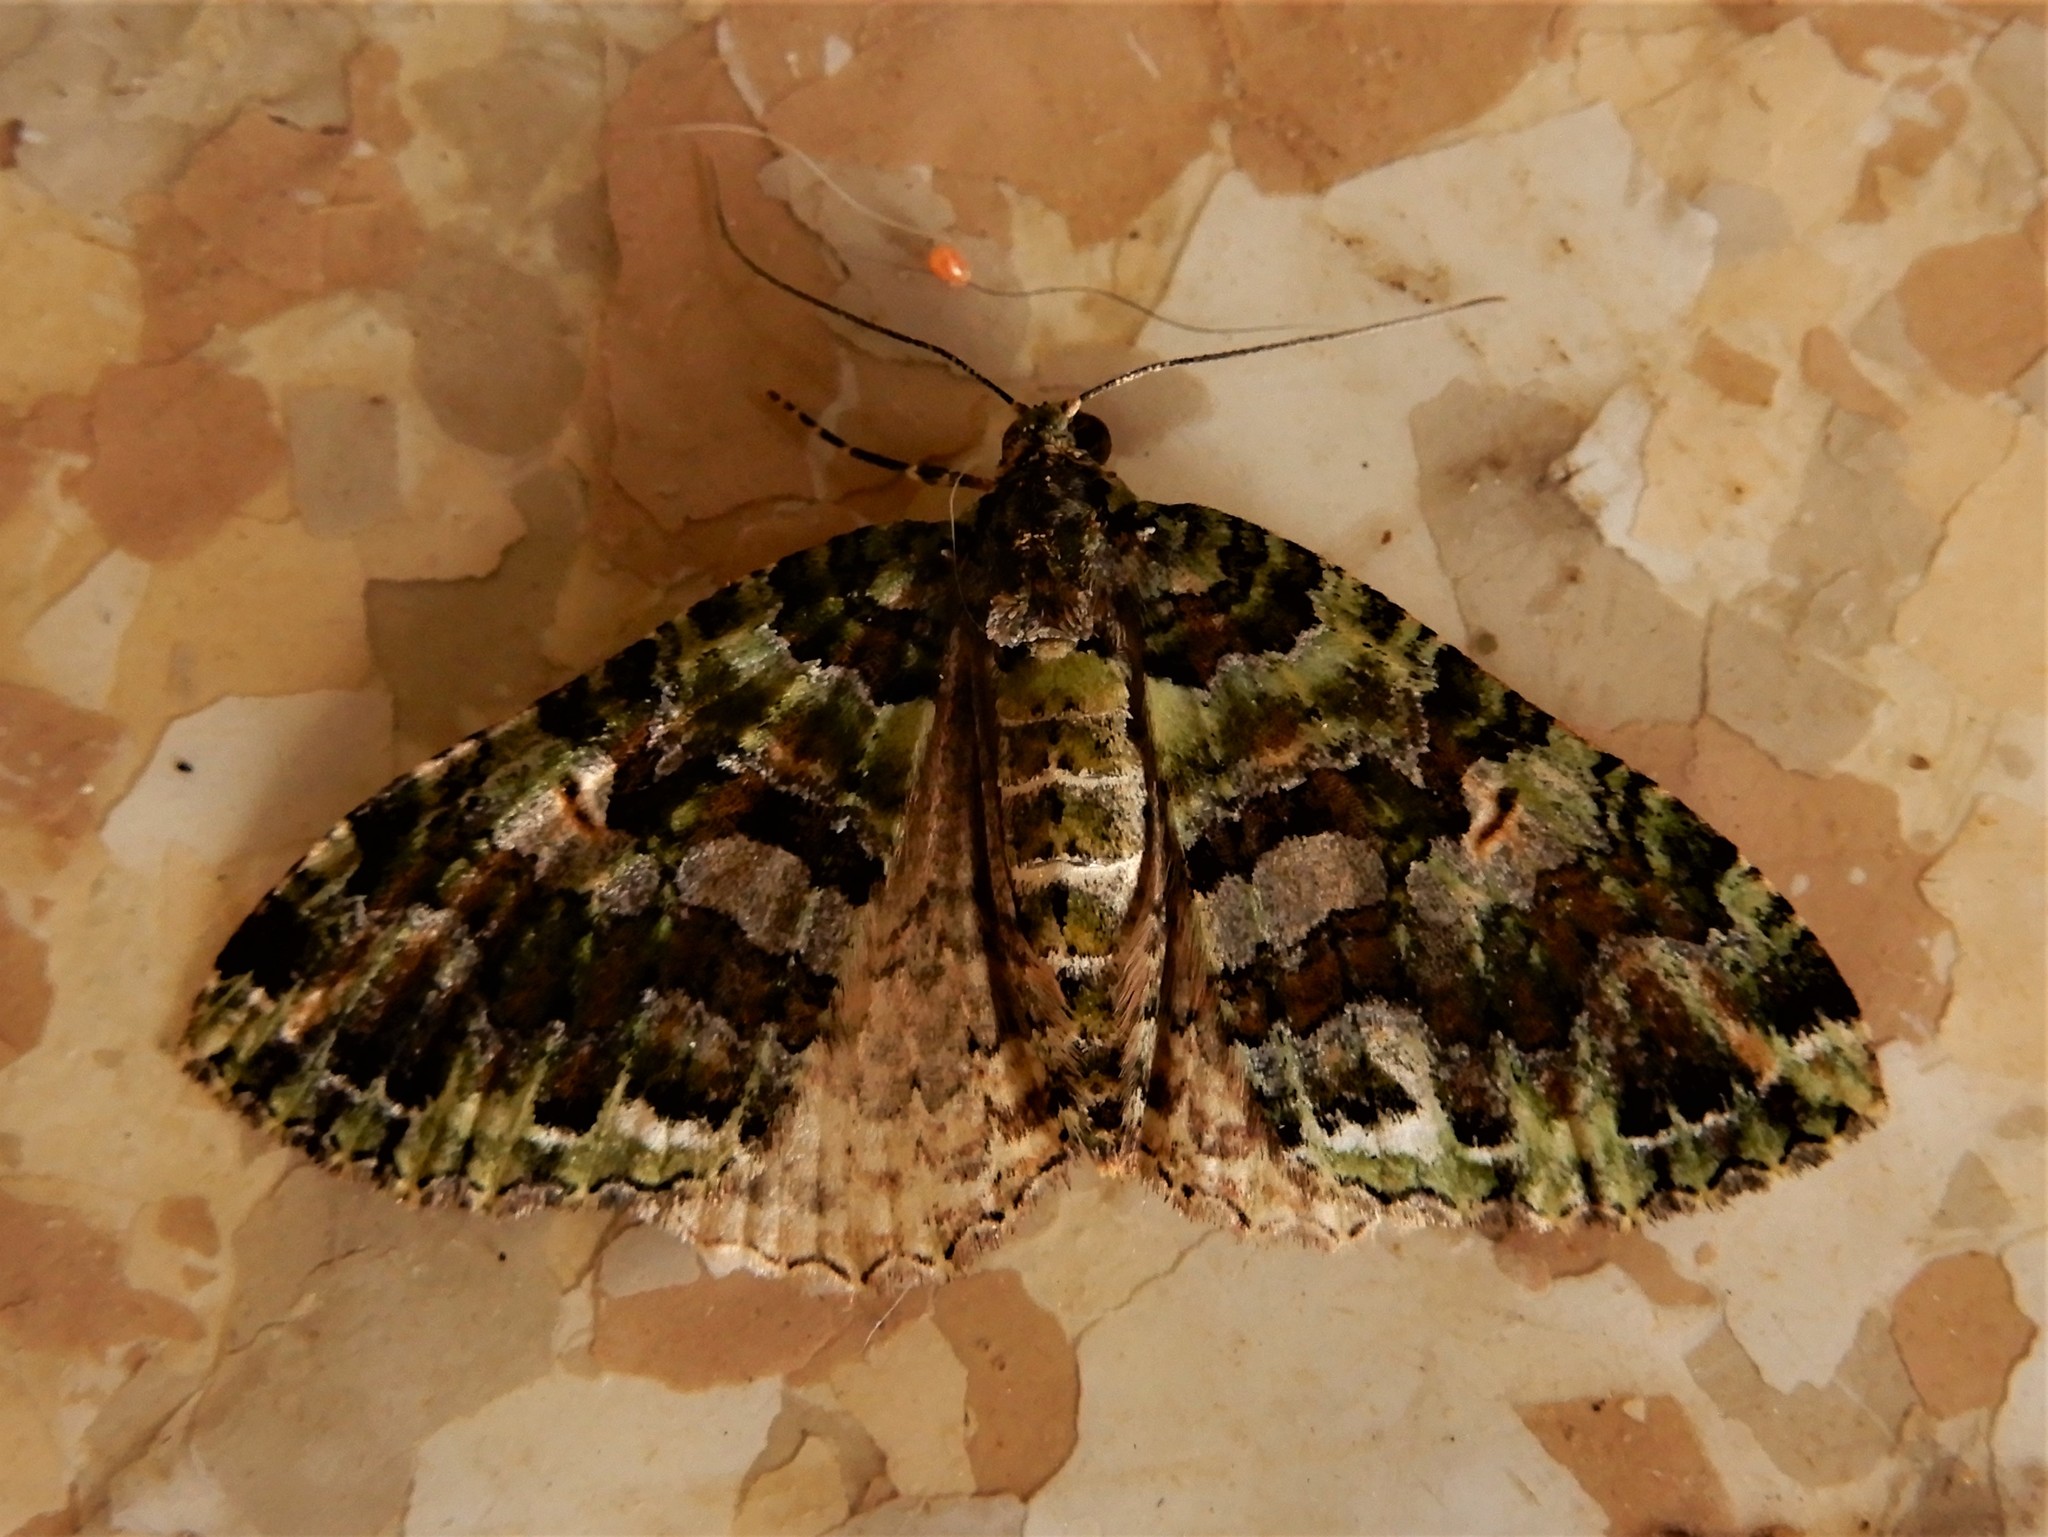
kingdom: Animalia
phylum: Arthropoda
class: Insecta
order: Lepidoptera
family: Geometridae
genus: Austrocidaria
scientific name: Austrocidaria similata
